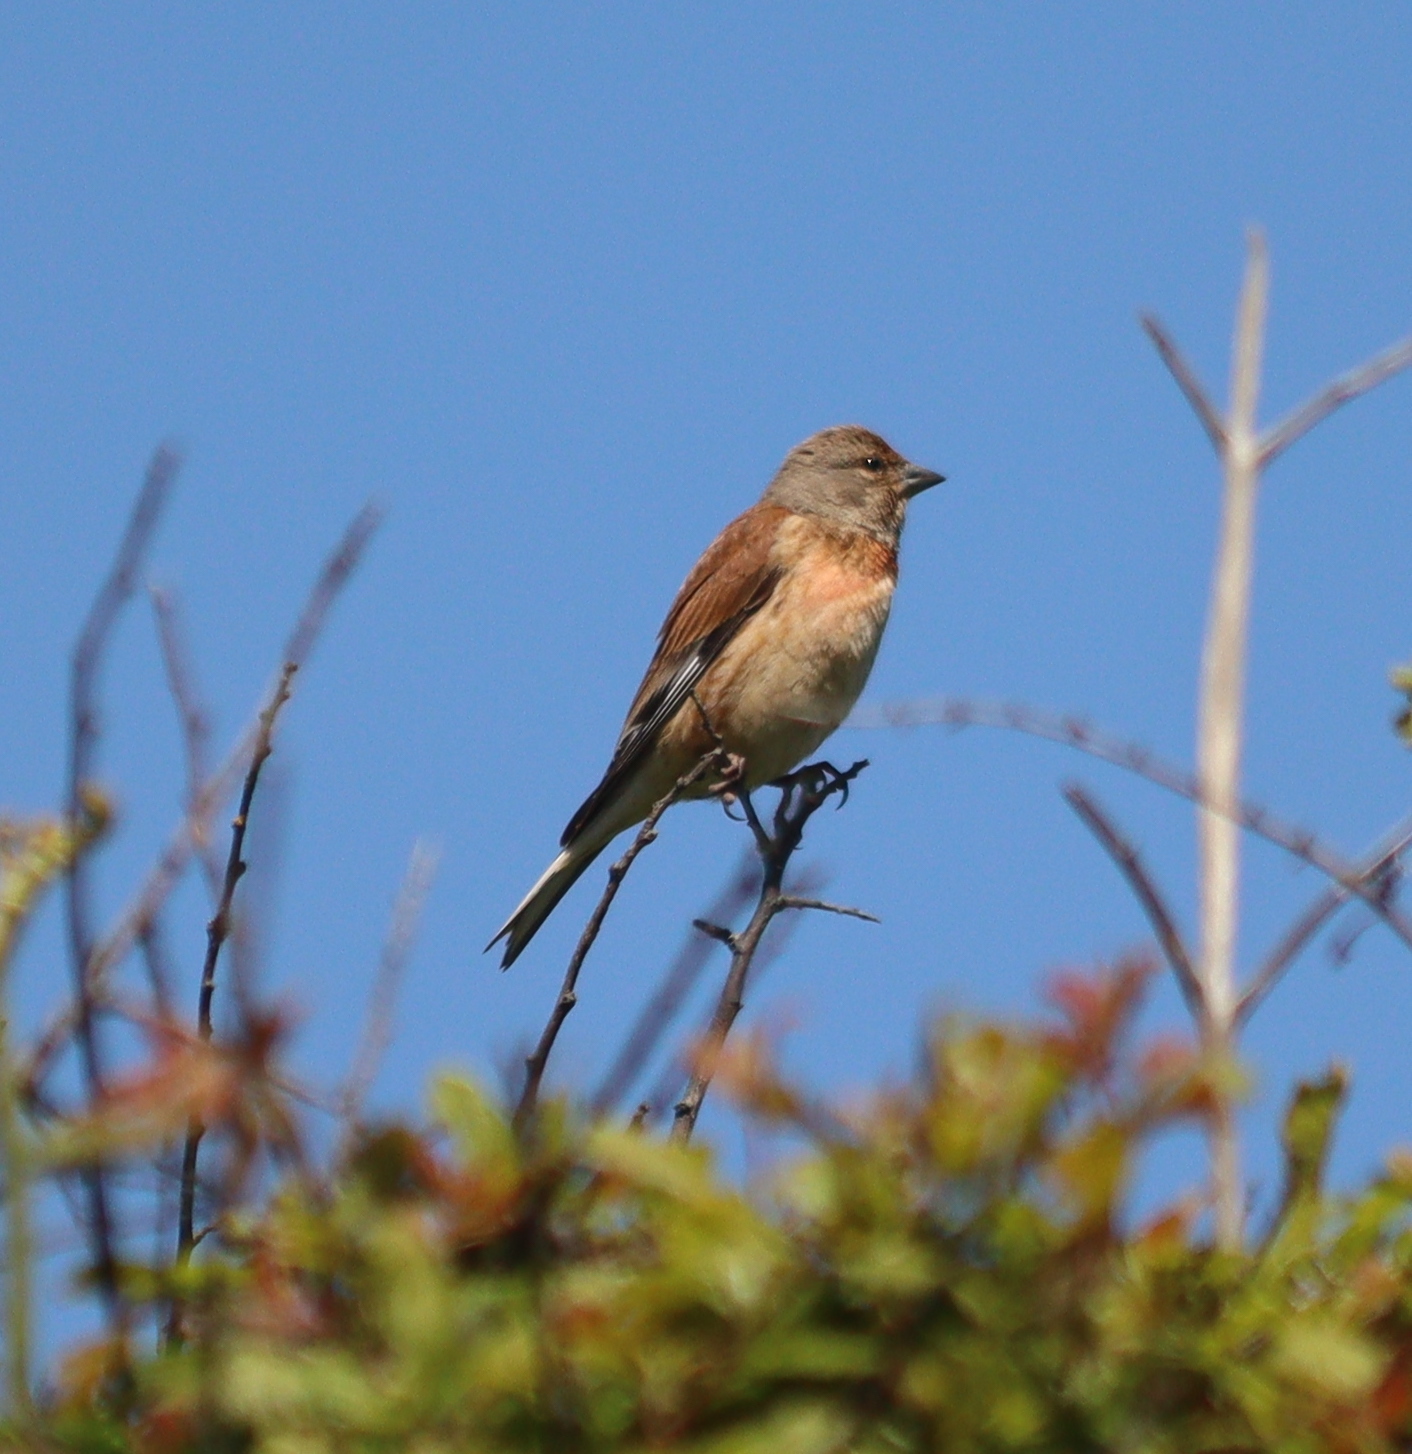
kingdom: Animalia
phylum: Chordata
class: Aves
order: Passeriformes
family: Fringillidae
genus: Linaria
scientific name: Linaria cannabina
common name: Common linnet
